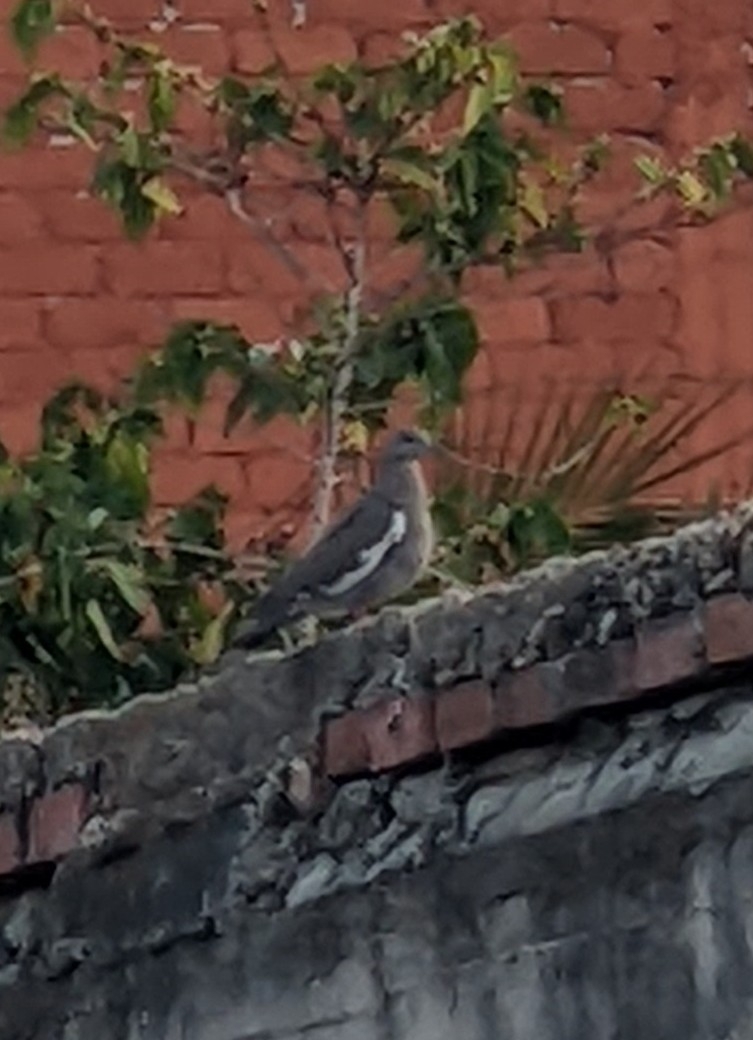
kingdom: Animalia
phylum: Chordata
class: Aves
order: Columbiformes
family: Columbidae
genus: Zenaida
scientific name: Zenaida asiatica
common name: White-winged dove
